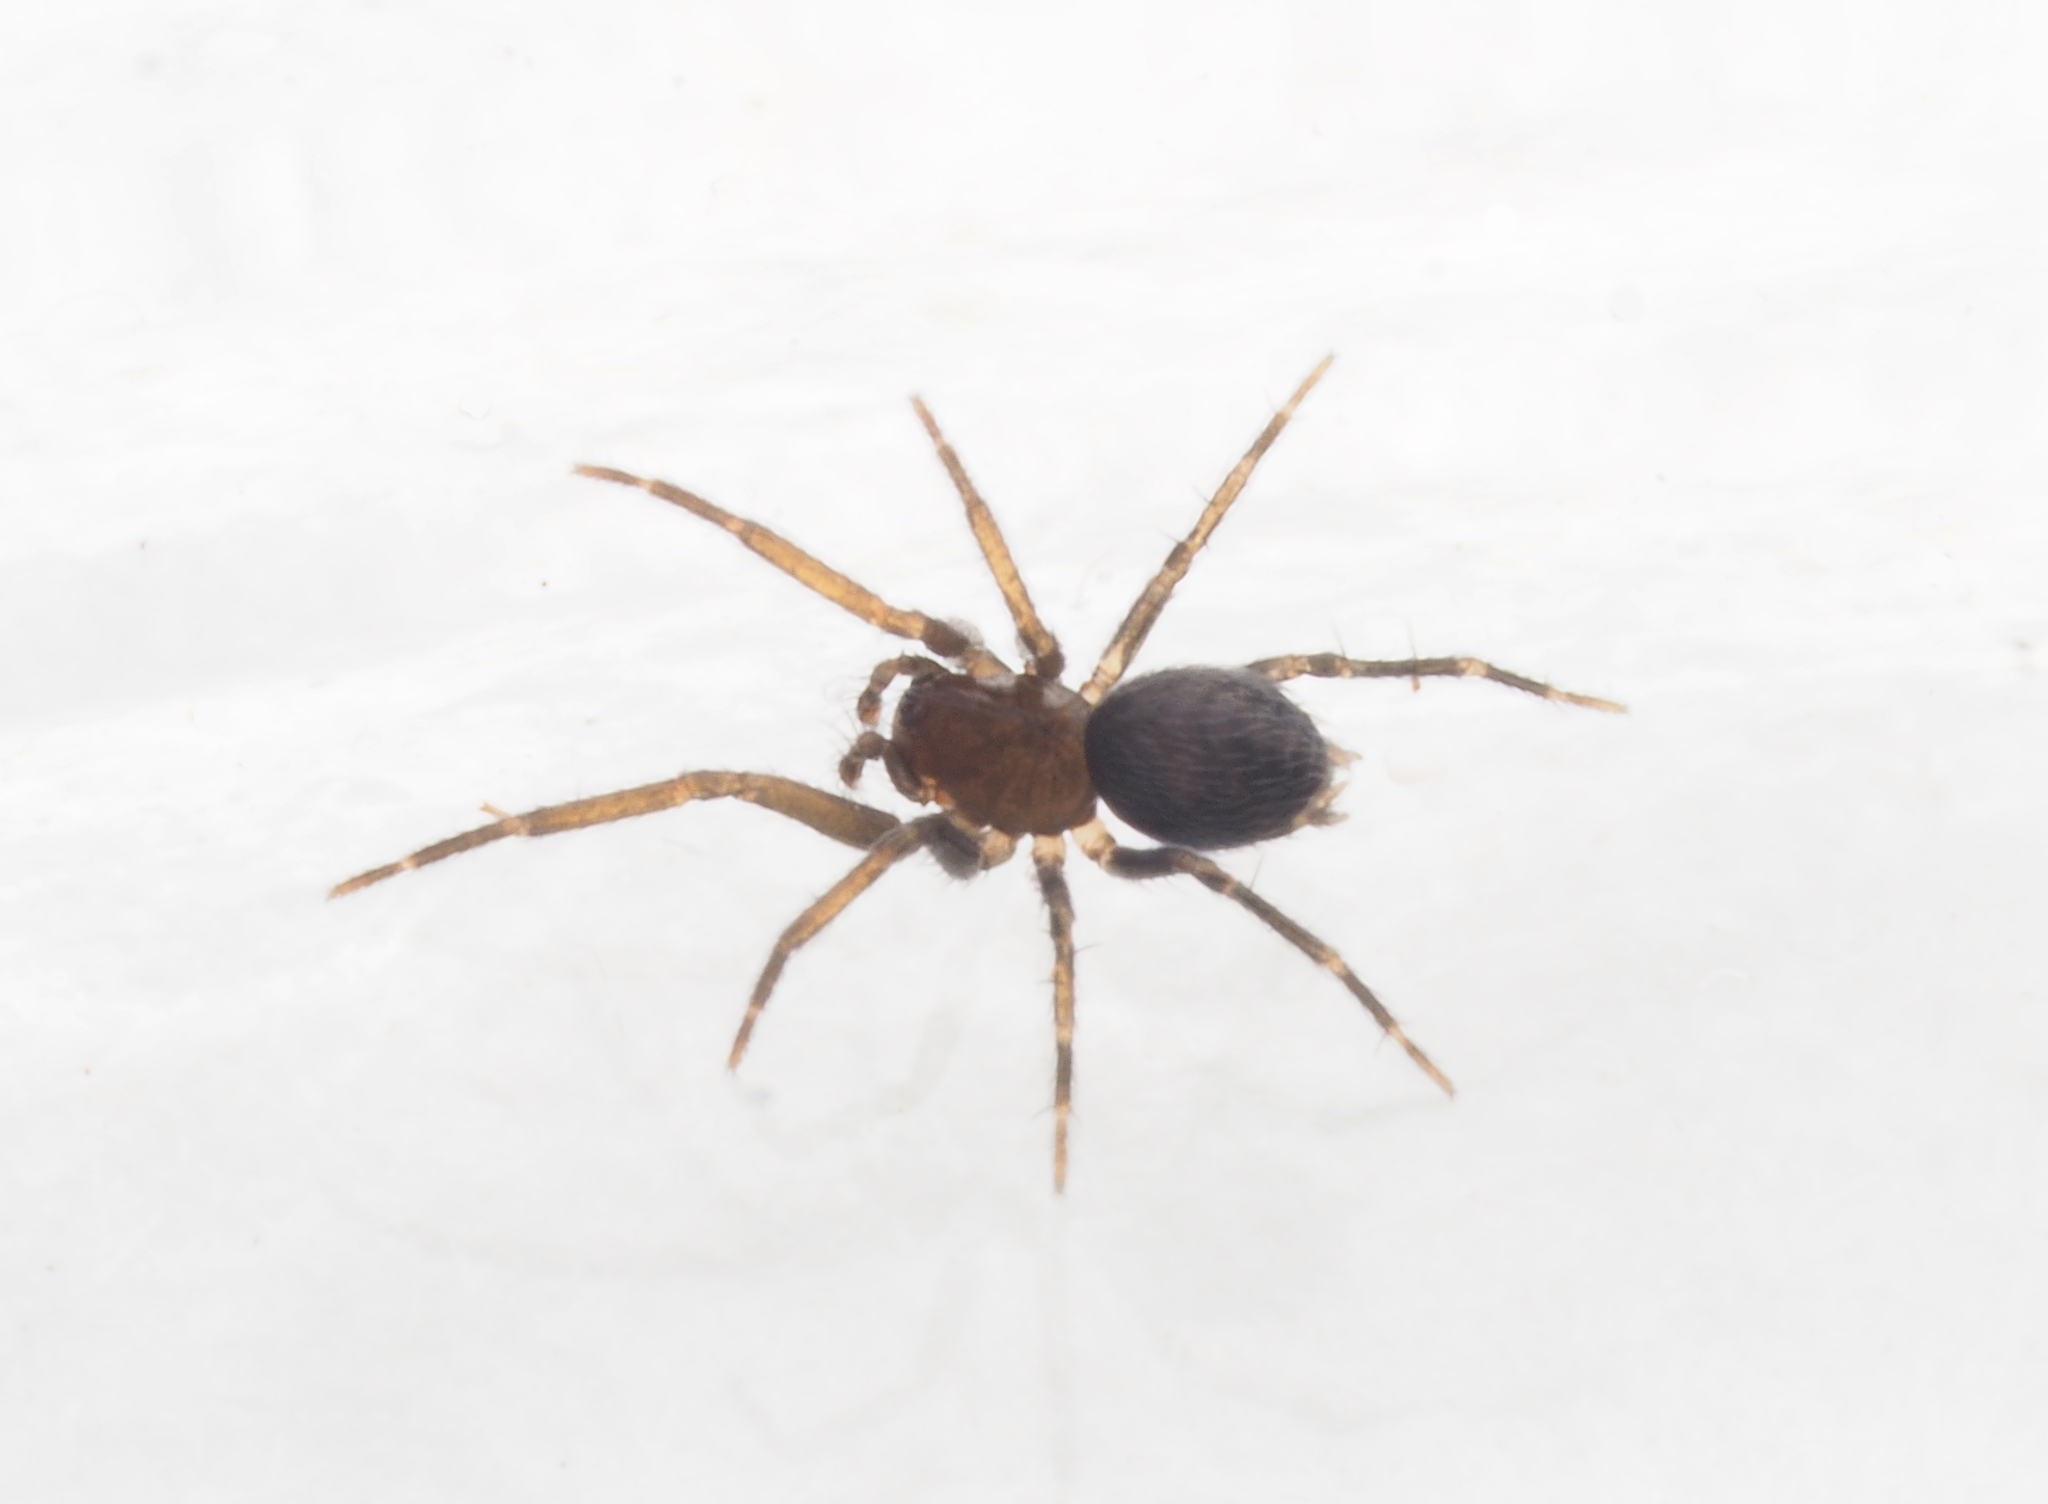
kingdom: Animalia
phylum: Arthropoda
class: Arachnida
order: Araneae
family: Hahniidae
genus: Alistra
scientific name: Alistra
